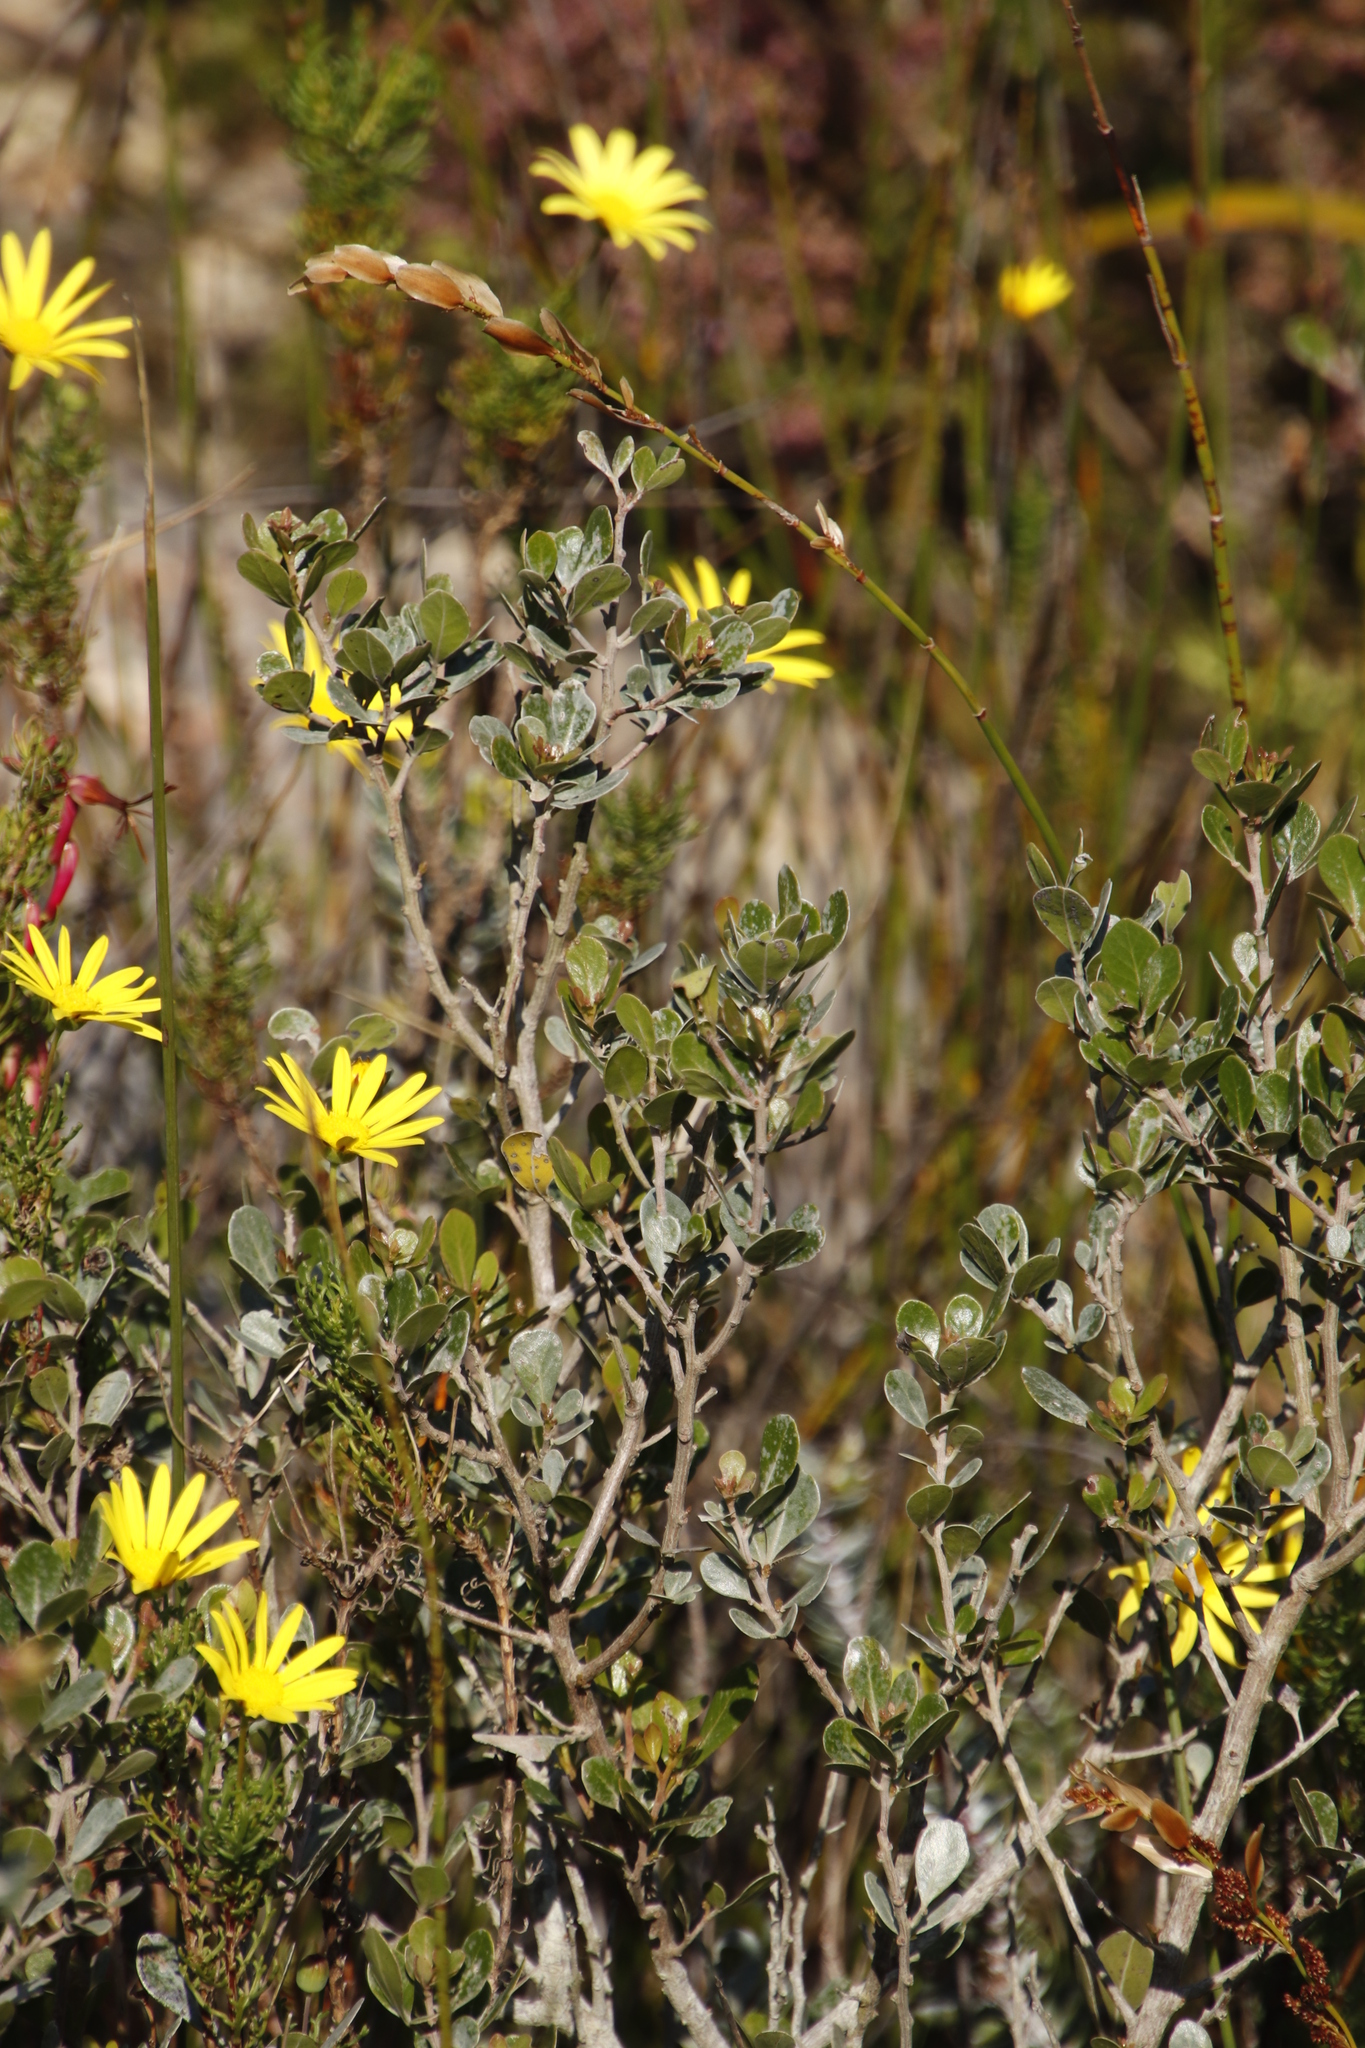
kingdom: Plantae
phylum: Tracheophyta
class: Magnoliopsida
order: Sapindales
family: Anacardiaceae
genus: Searsia
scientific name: Searsia lucida
